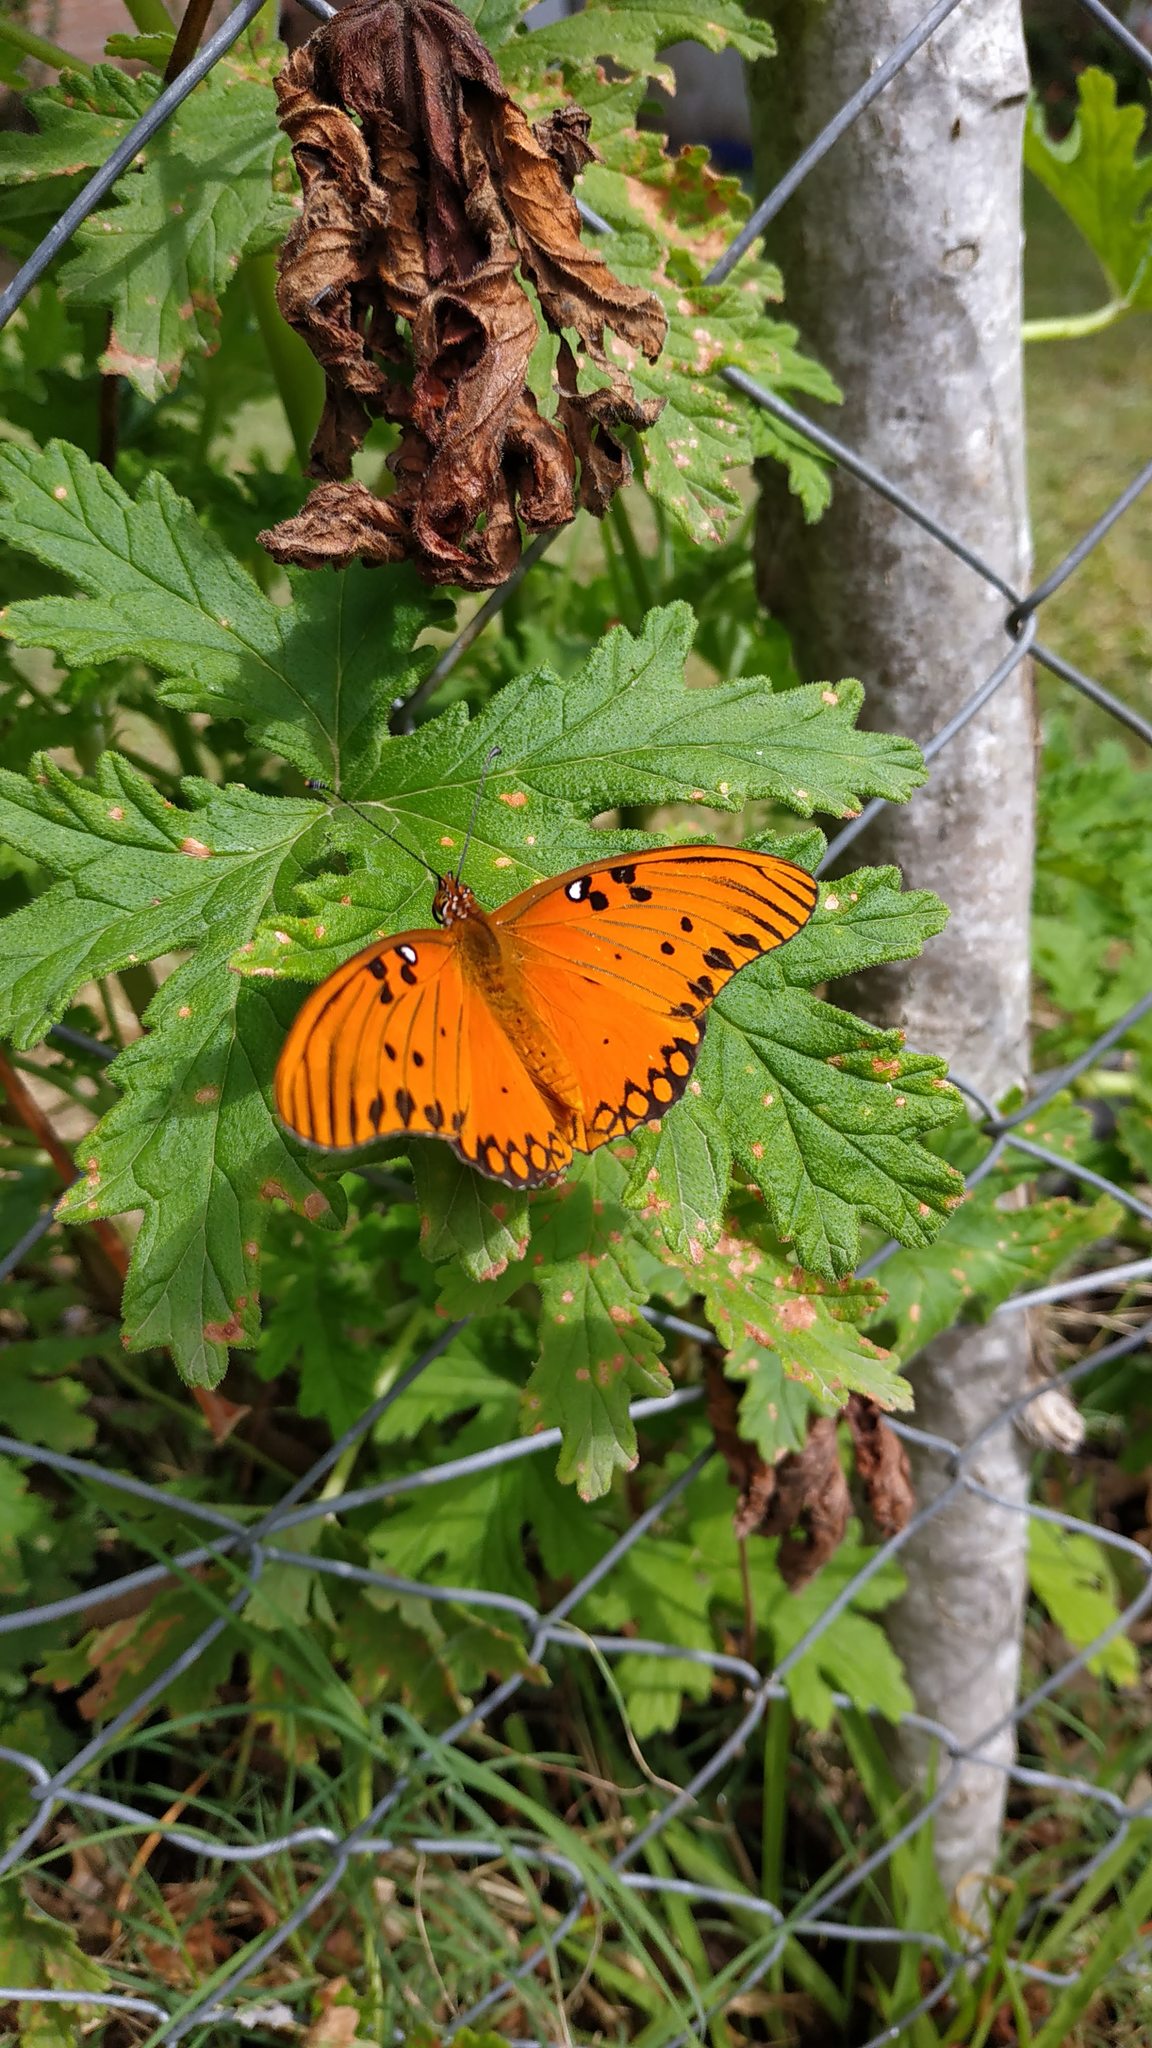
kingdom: Animalia
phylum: Arthropoda
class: Insecta
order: Lepidoptera
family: Nymphalidae
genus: Dione
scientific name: Dione vanillae
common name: Gulf fritillary
